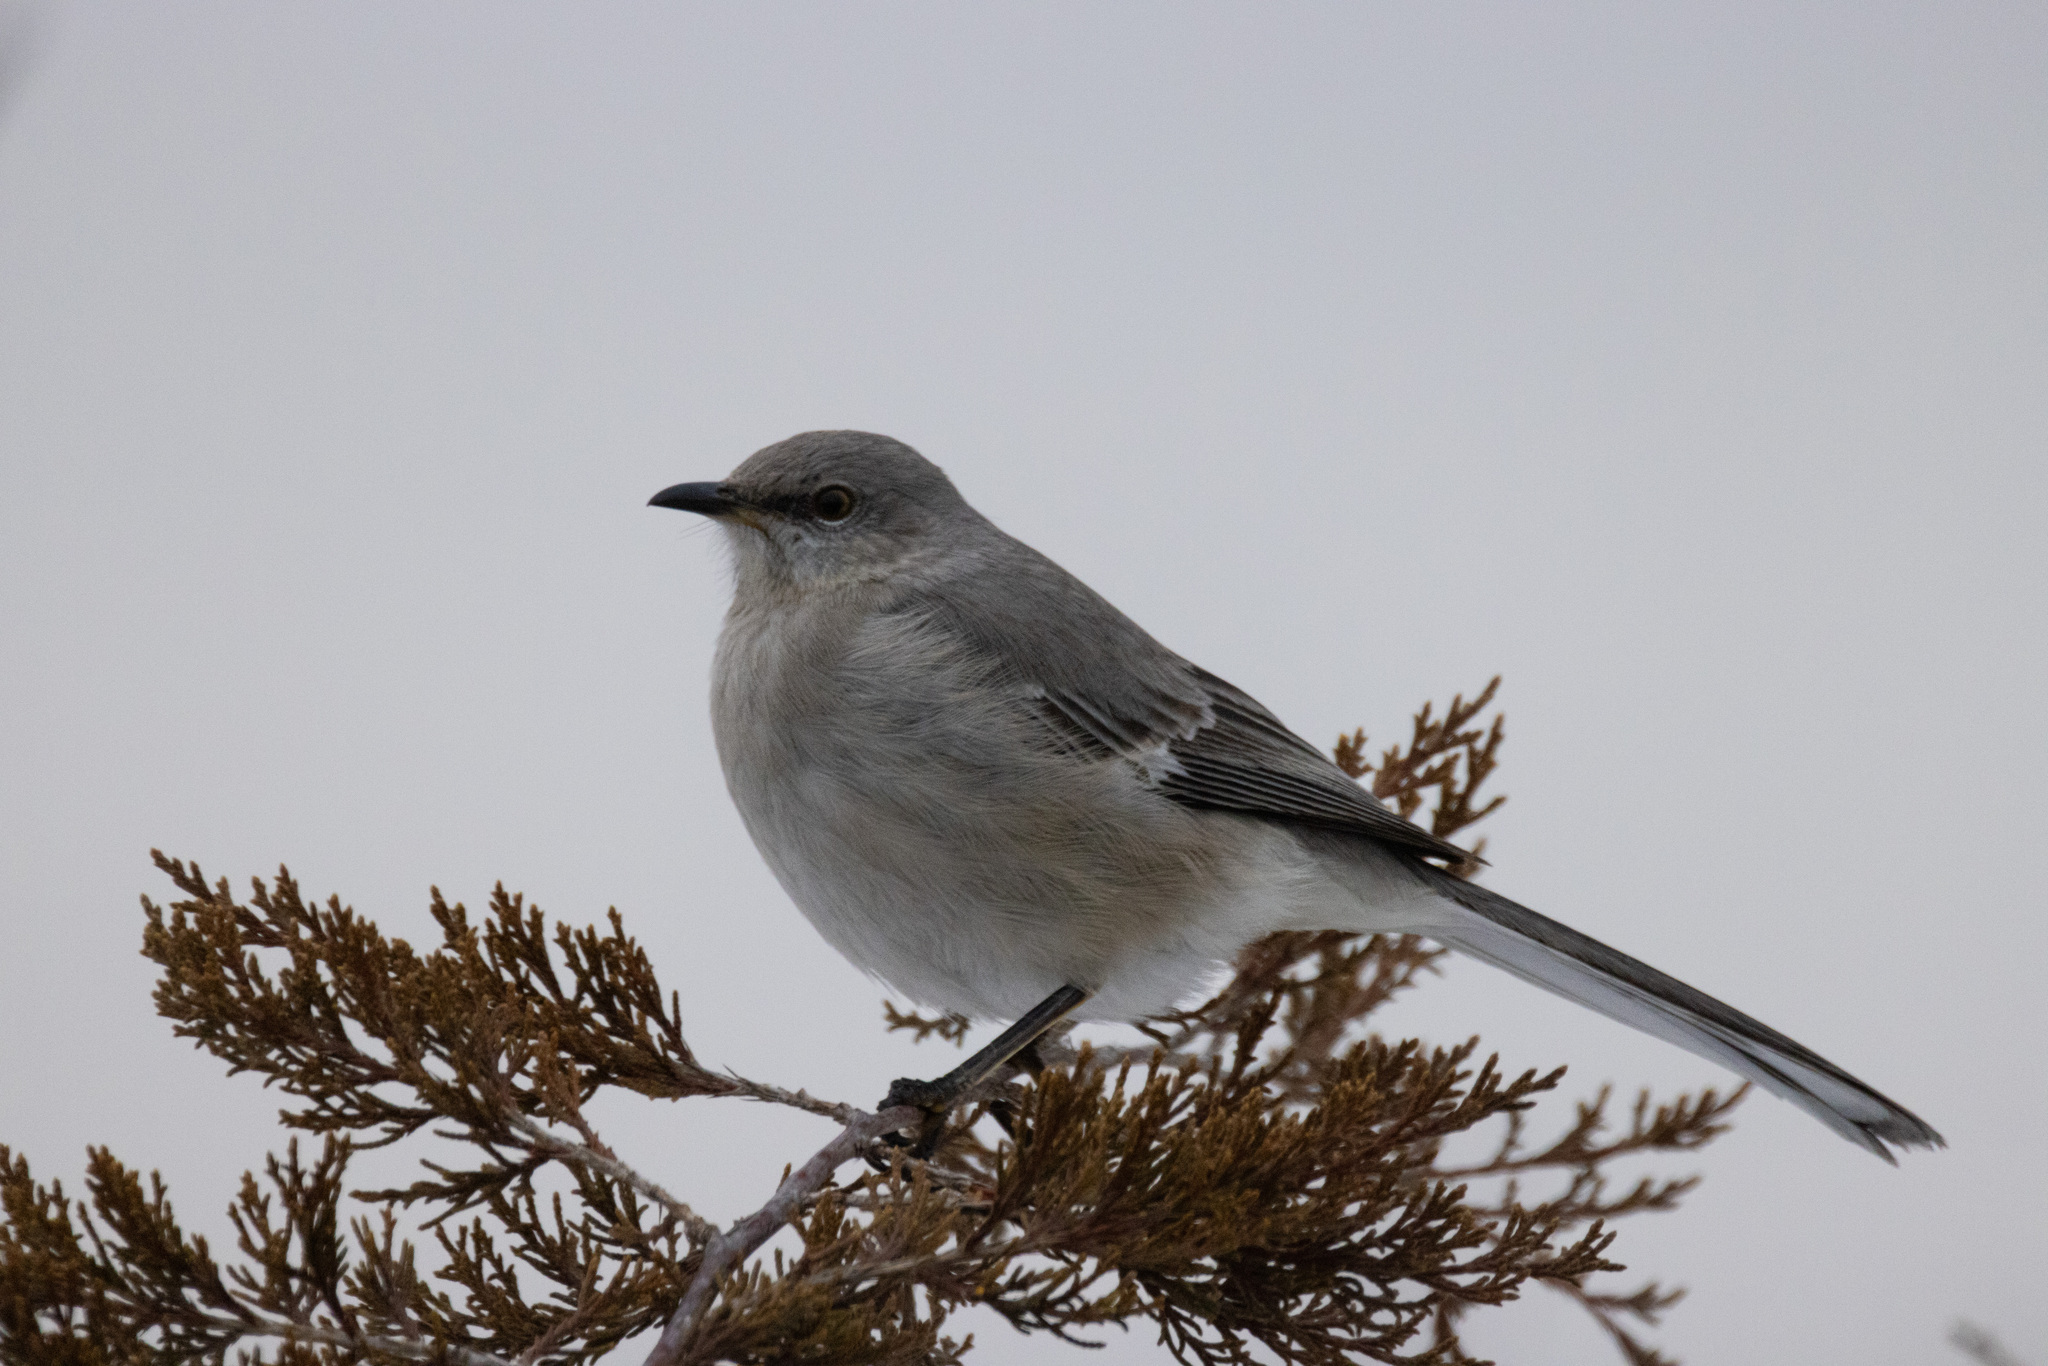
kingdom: Animalia
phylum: Chordata
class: Aves
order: Passeriformes
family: Mimidae
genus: Mimus
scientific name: Mimus polyglottos
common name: Northern mockingbird
